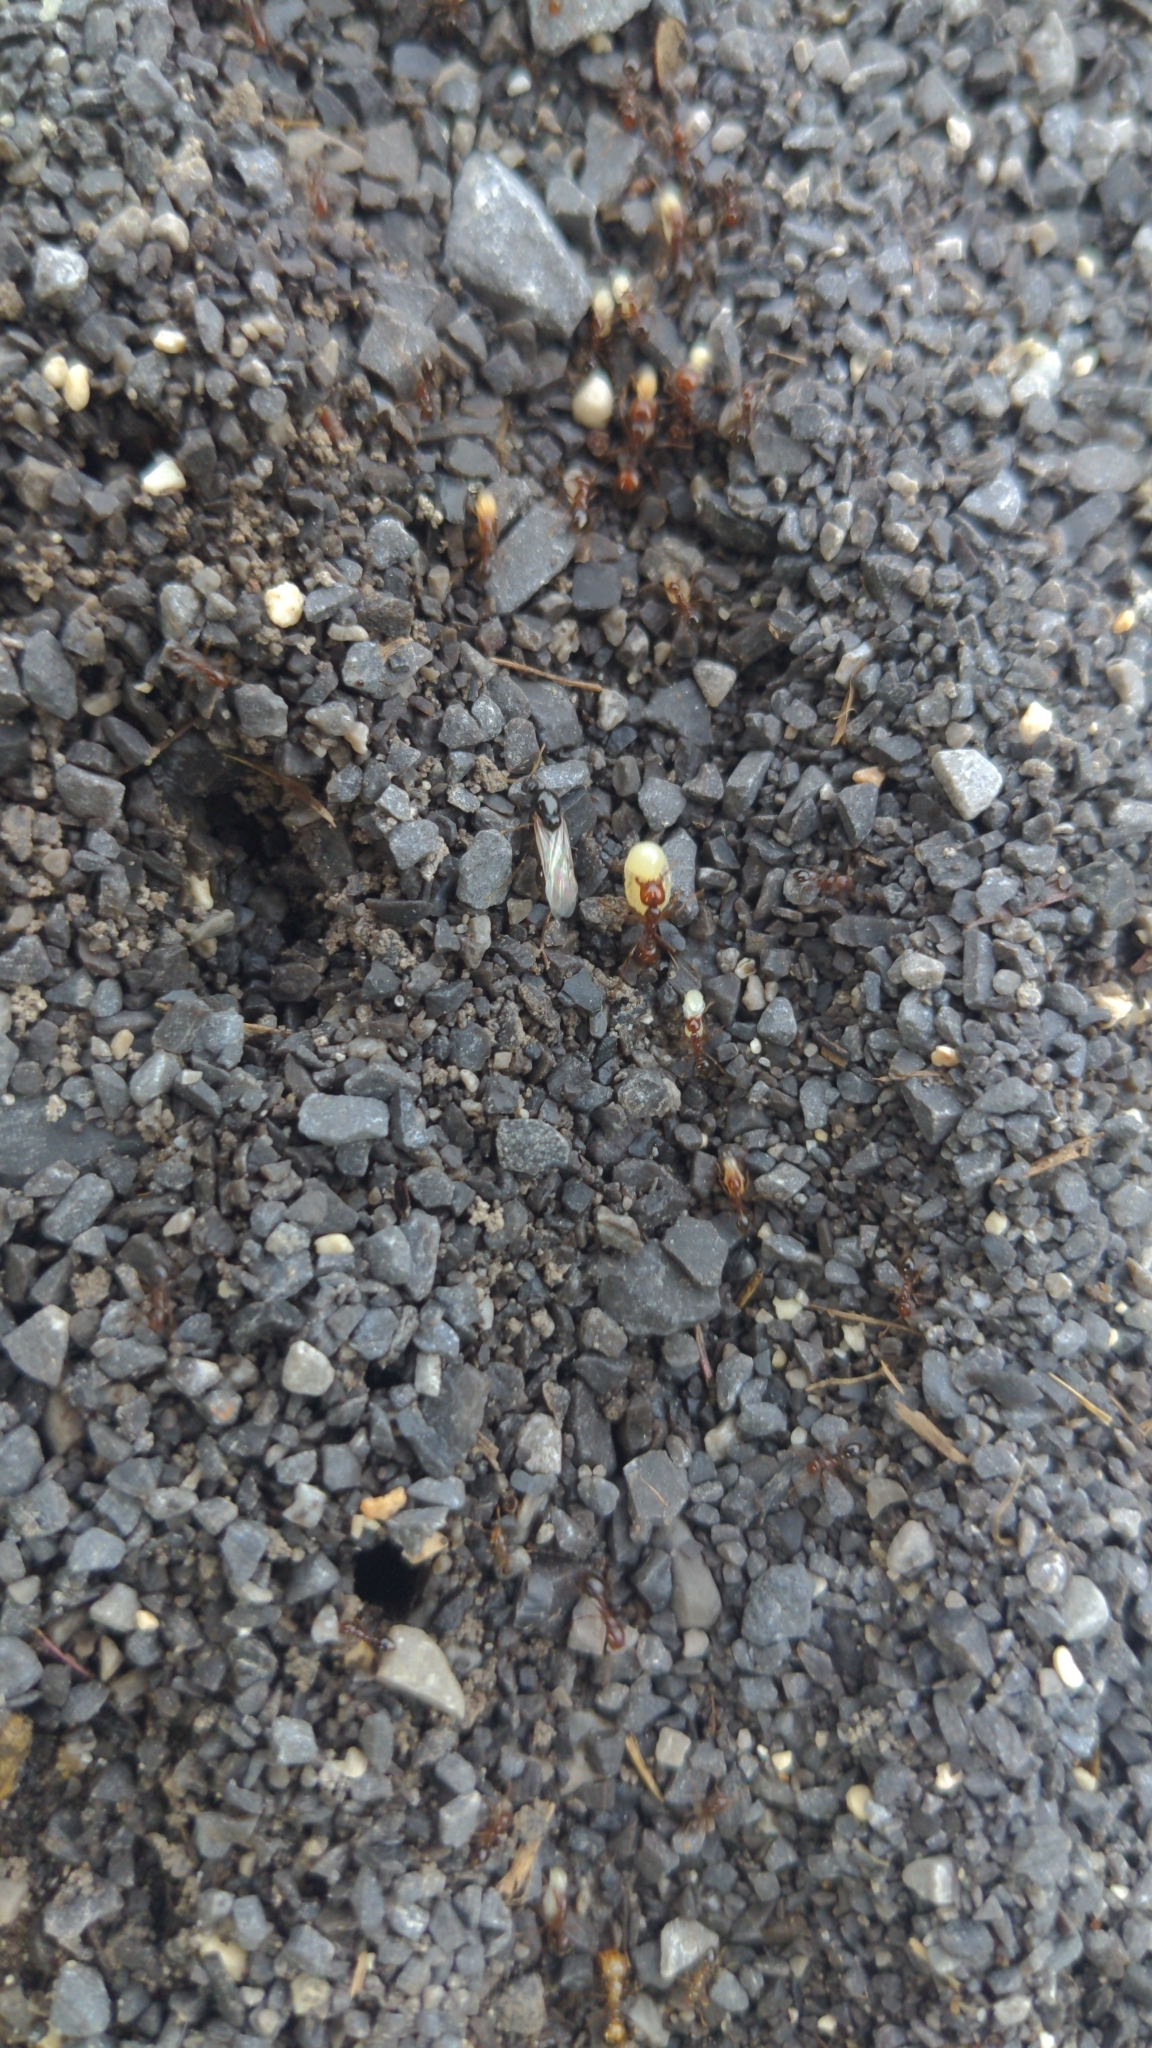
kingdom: Animalia
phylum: Arthropoda
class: Insecta
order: Hymenoptera
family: Formicidae
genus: Solenopsis
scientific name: Solenopsis invicta
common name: Red imported fire ant
